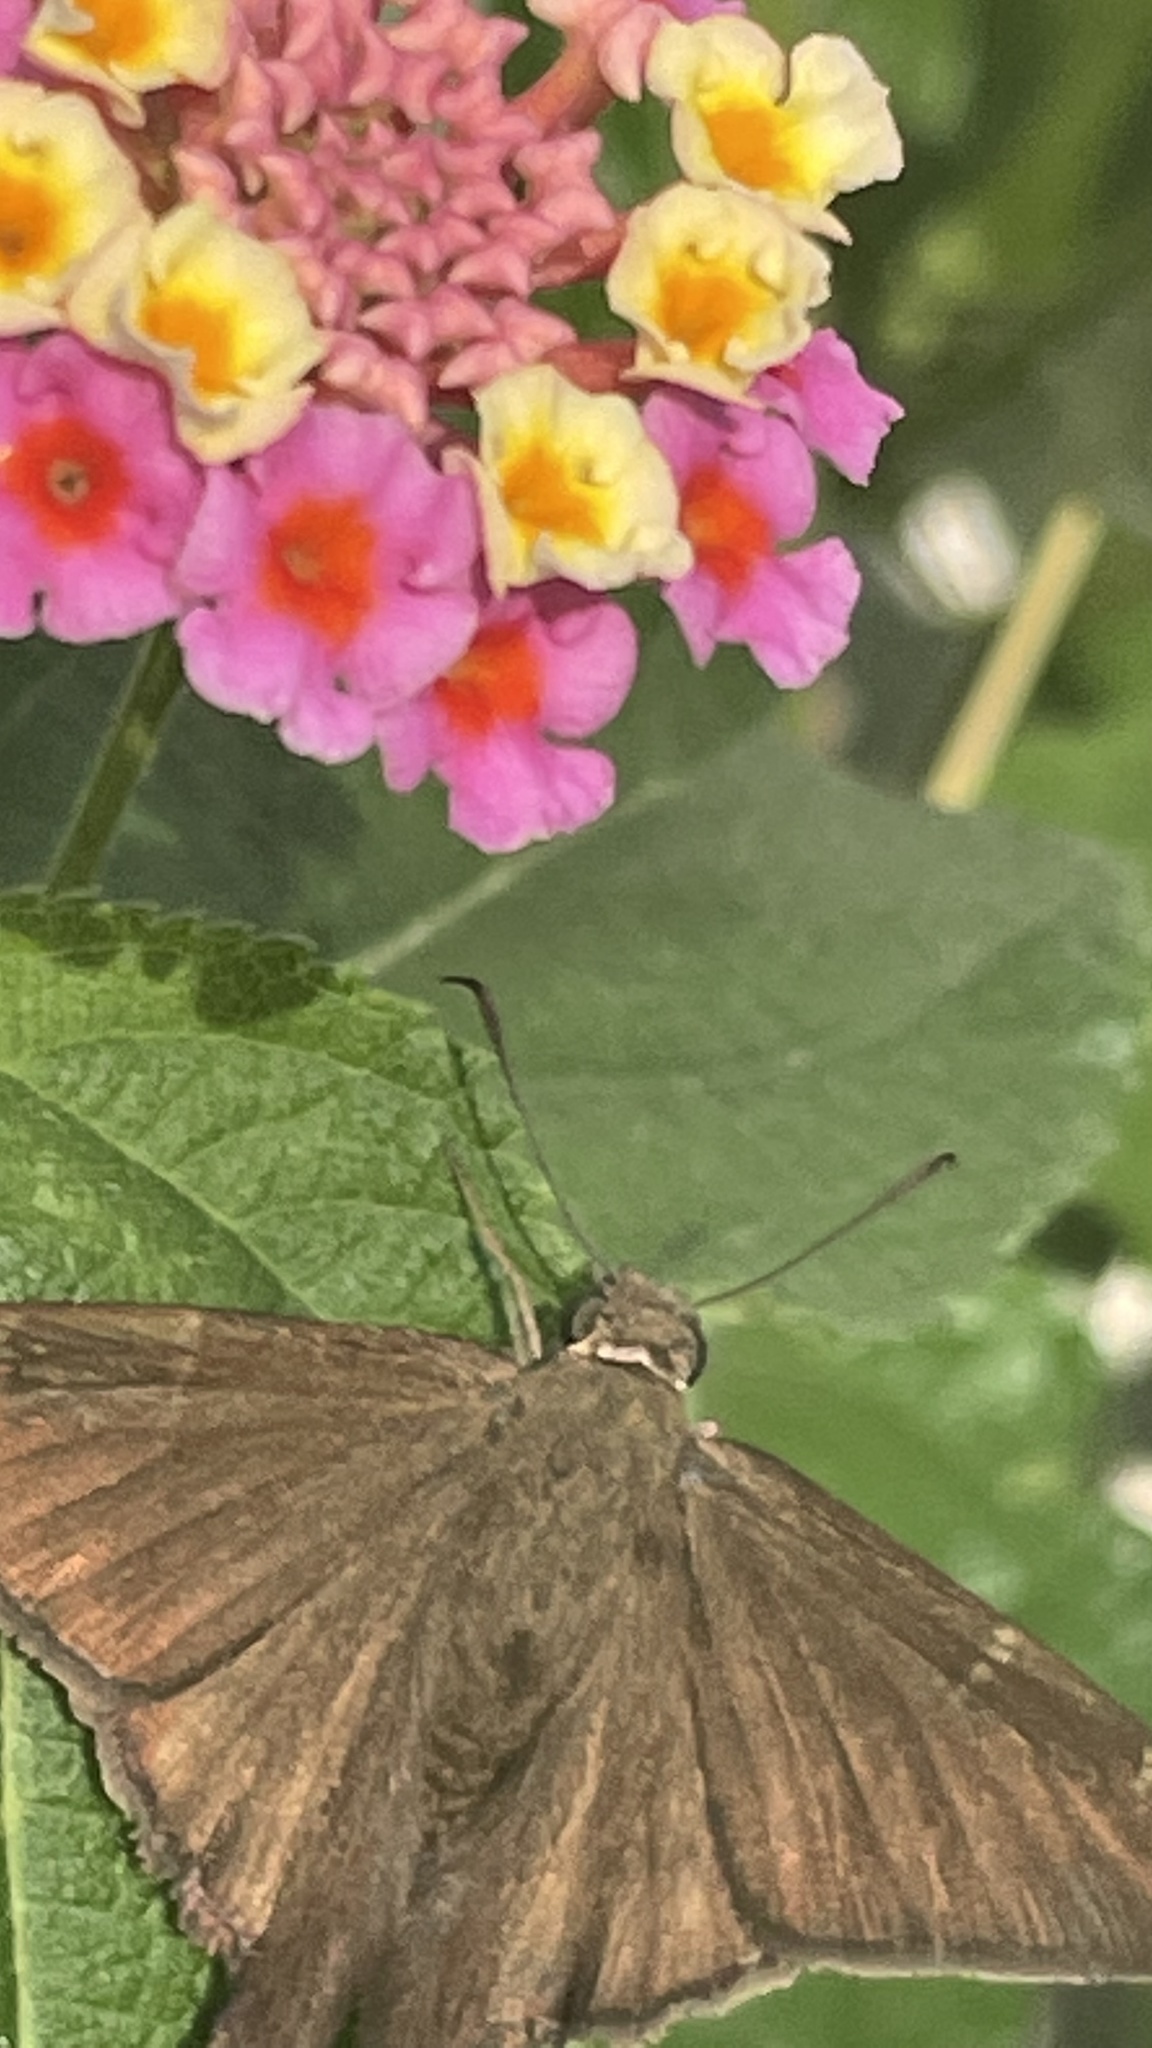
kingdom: Animalia
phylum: Arthropoda
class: Insecta
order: Lepidoptera
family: Hesperiidae
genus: Urbanus
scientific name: Urbanus procne
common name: Brown longtail
